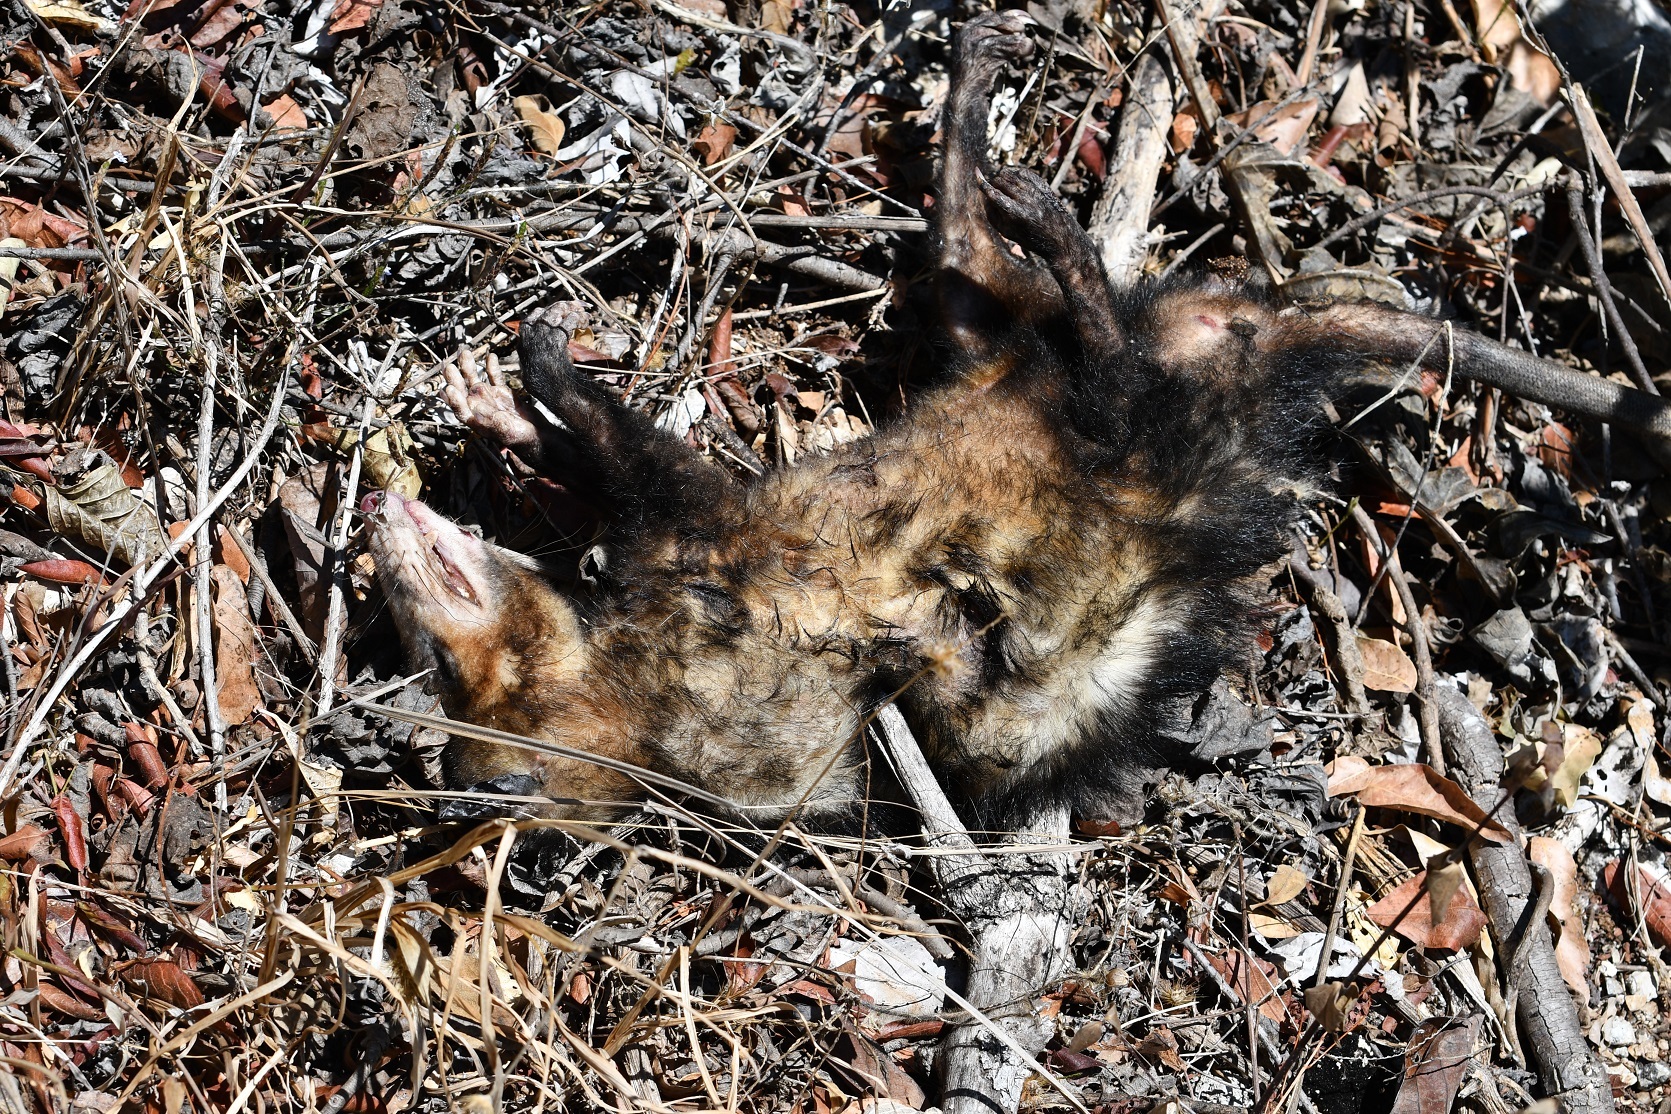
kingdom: Animalia
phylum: Chordata
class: Mammalia
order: Didelphimorphia
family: Didelphidae
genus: Didelphis
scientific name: Didelphis
